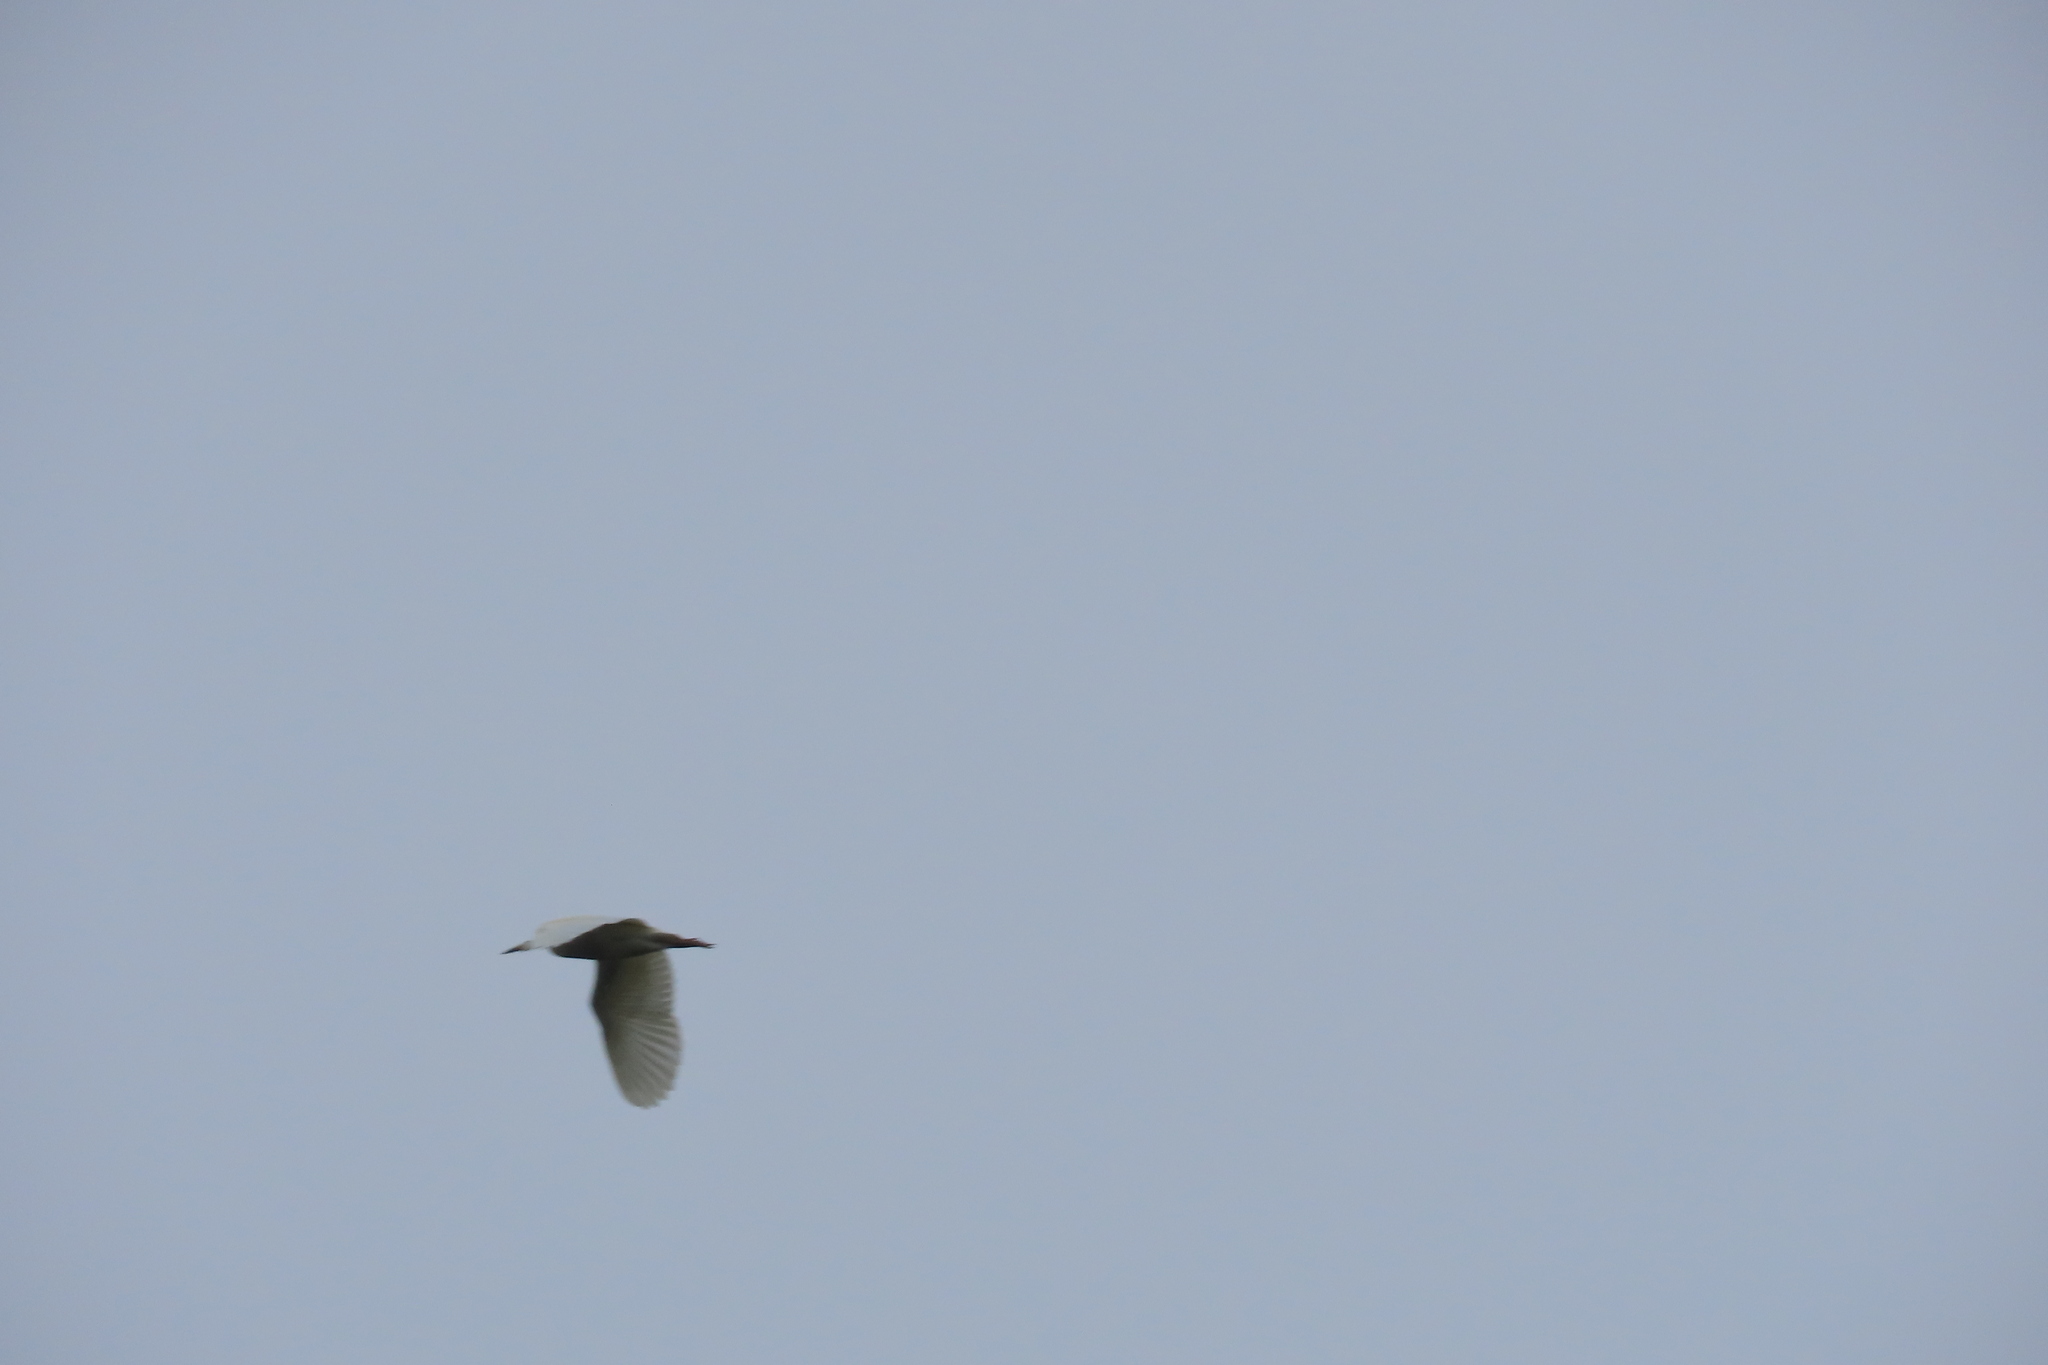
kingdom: Animalia
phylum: Chordata
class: Aves
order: Pelecaniformes
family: Ardeidae
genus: Ardeola
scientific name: Ardeola grayii
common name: Indian pond heron
